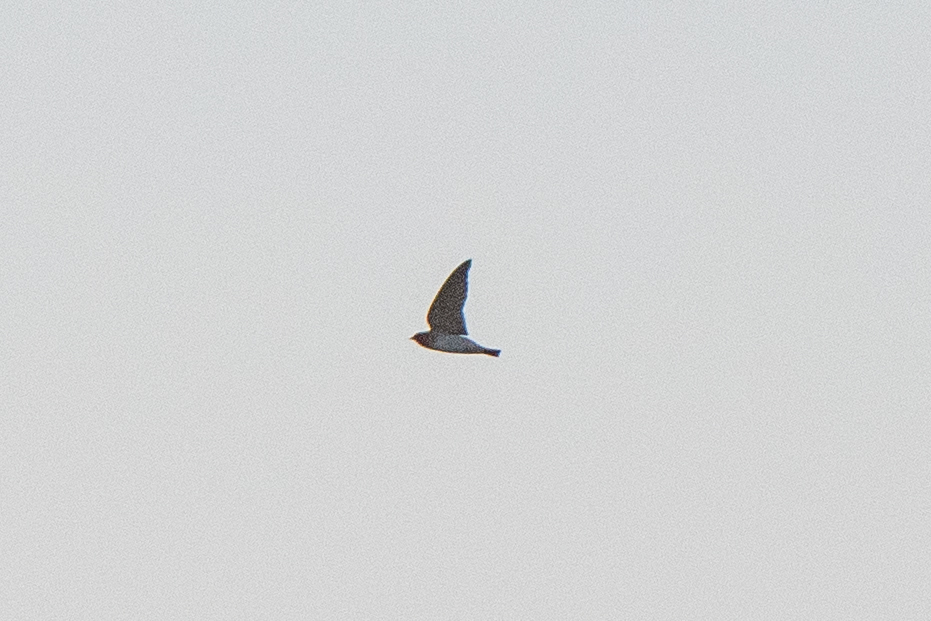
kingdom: Animalia
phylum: Chordata
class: Aves
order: Passeriformes
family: Hirundinidae
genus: Petrochelidon
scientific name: Petrochelidon pyrrhonota
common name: American cliff swallow
